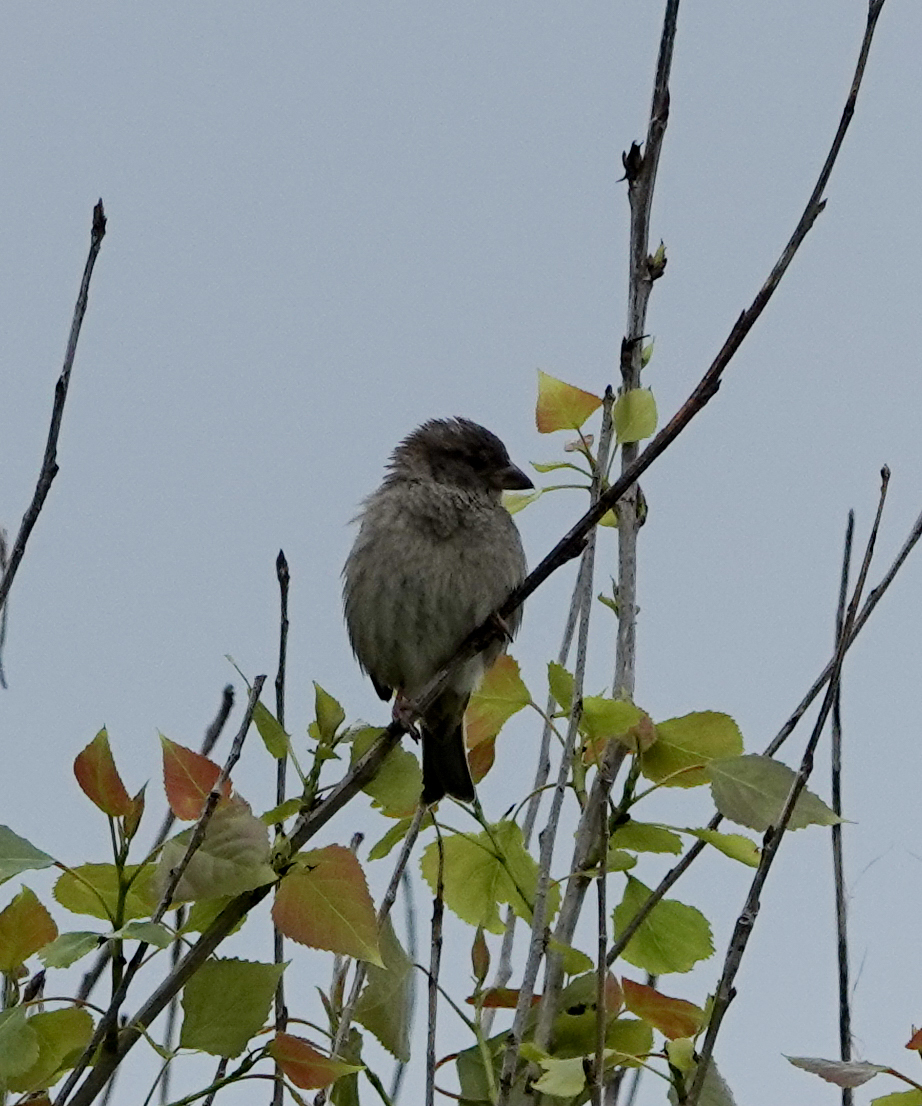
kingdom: Animalia
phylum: Chordata
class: Aves
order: Passeriformes
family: Passeridae
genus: Passer
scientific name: Passer domesticus
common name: House sparrow
